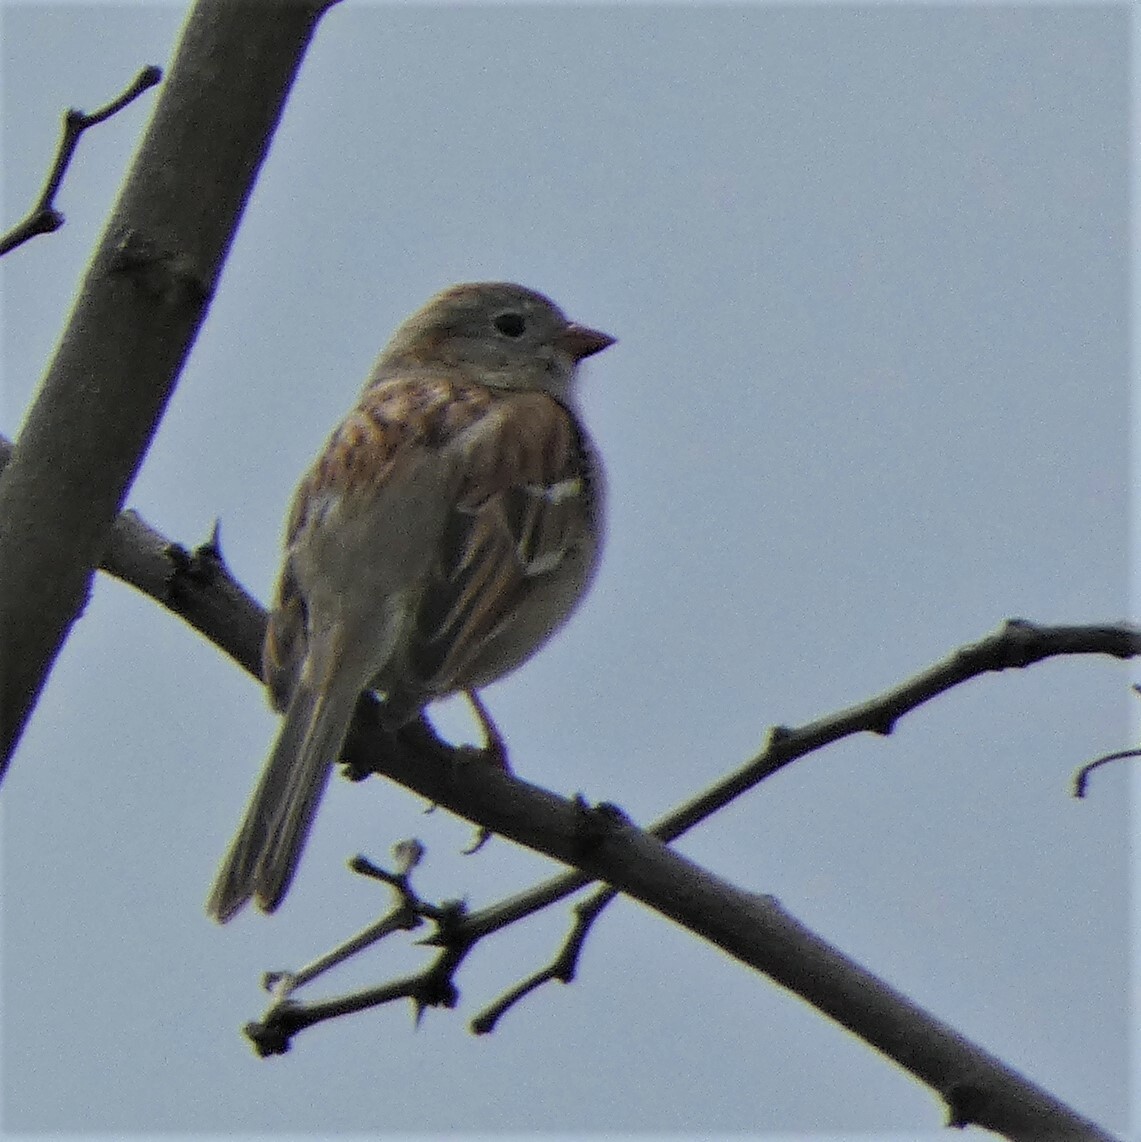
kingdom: Animalia
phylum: Chordata
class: Aves
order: Passeriformes
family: Passerellidae
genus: Spizella
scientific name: Spizella pusilla
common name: Field sparrow
